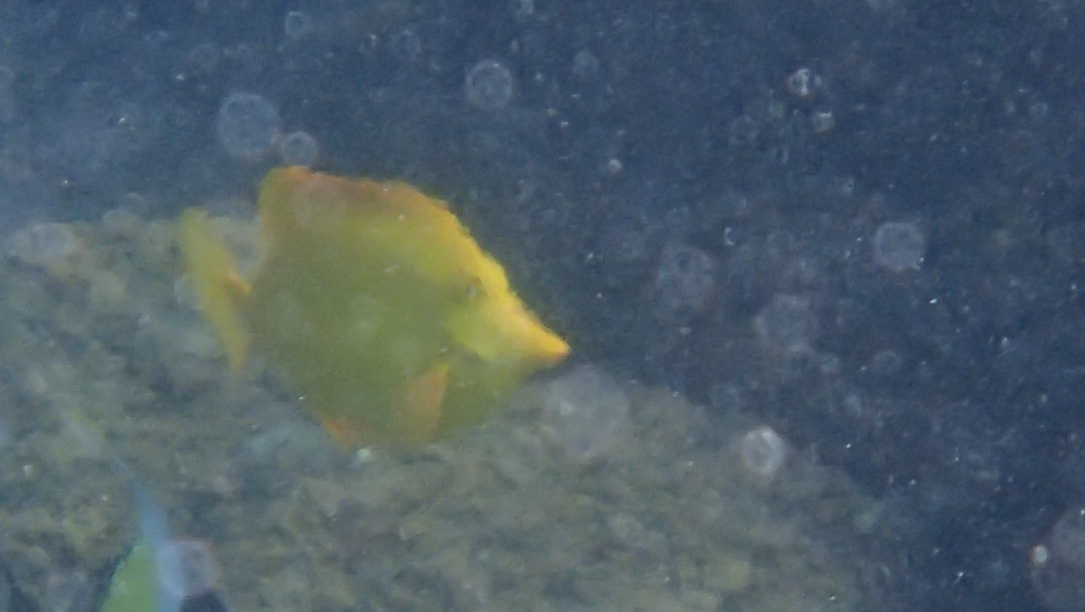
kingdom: Animalia
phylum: Chordata
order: Perciformes
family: Acanthuridae
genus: Zebrasoma
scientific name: Zebrasoma flavescens
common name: Yellow tang
